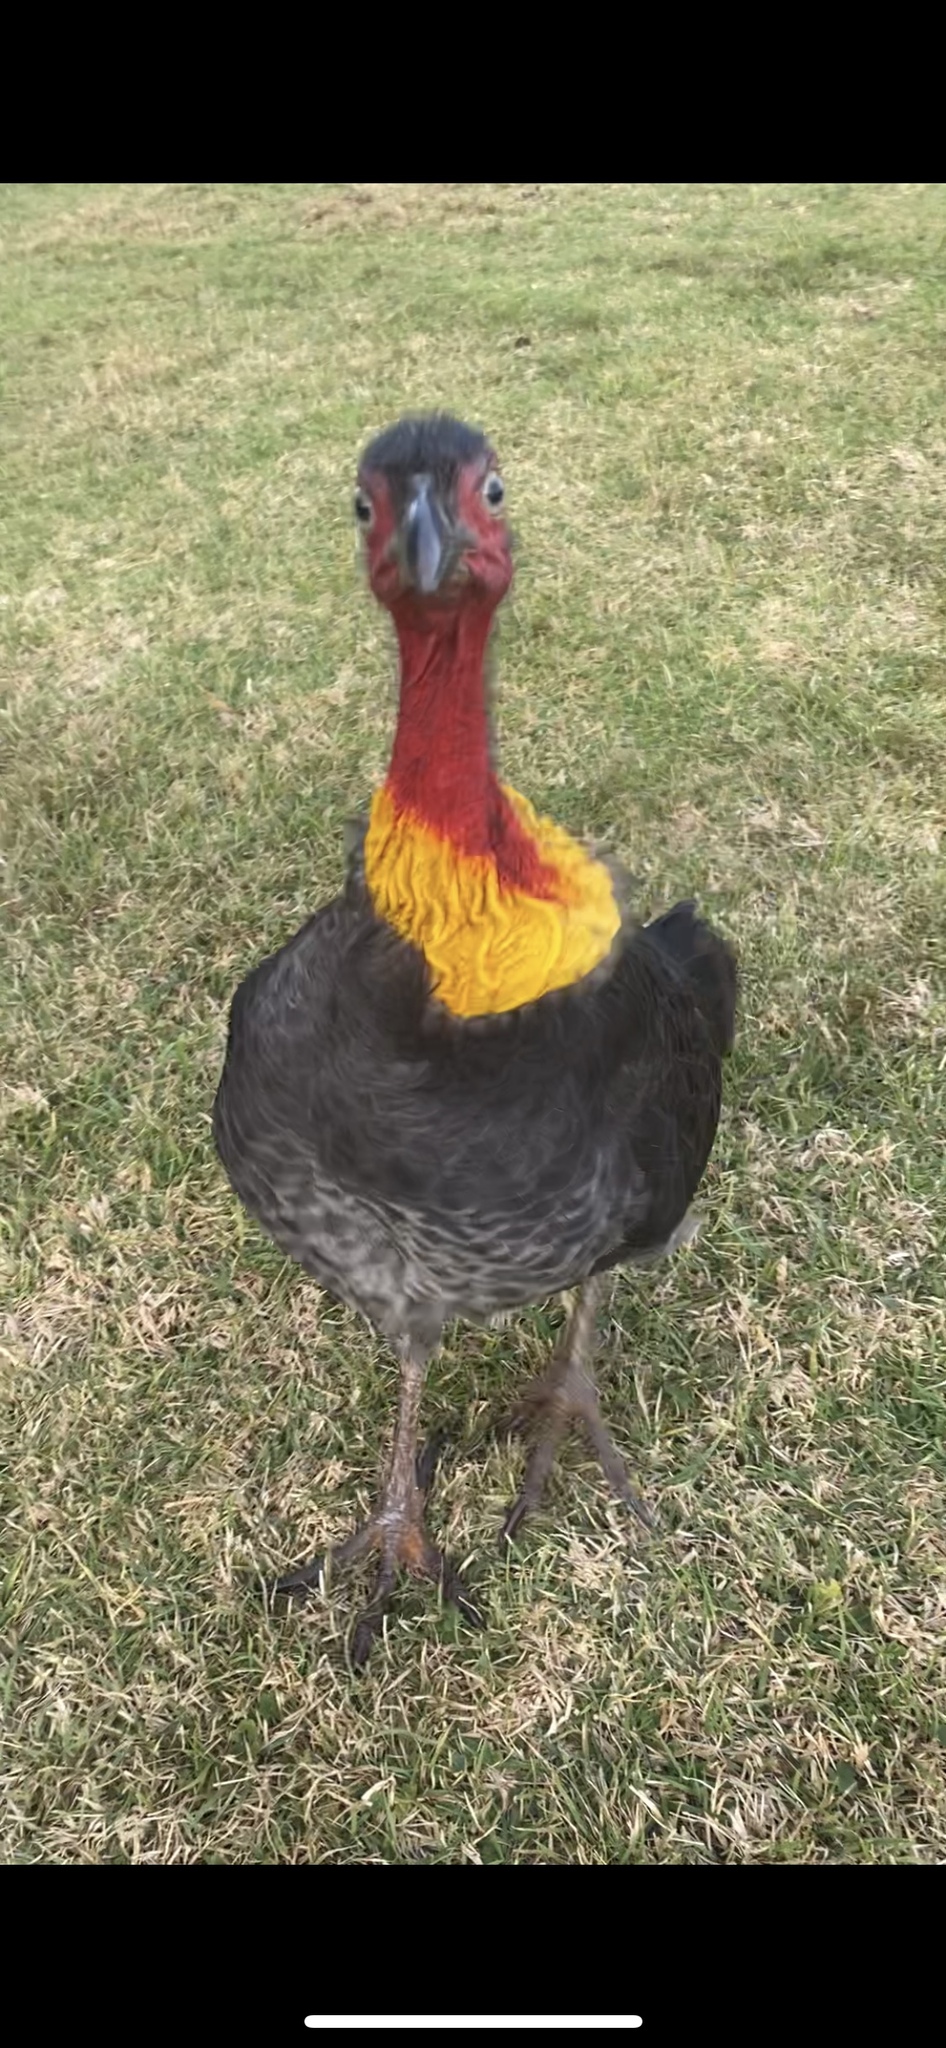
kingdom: Animalia
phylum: Chordata
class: Aves
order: Galliformes
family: Megapodiidae
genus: Alectura
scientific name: Alectura lathami
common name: Australian brushturkey
